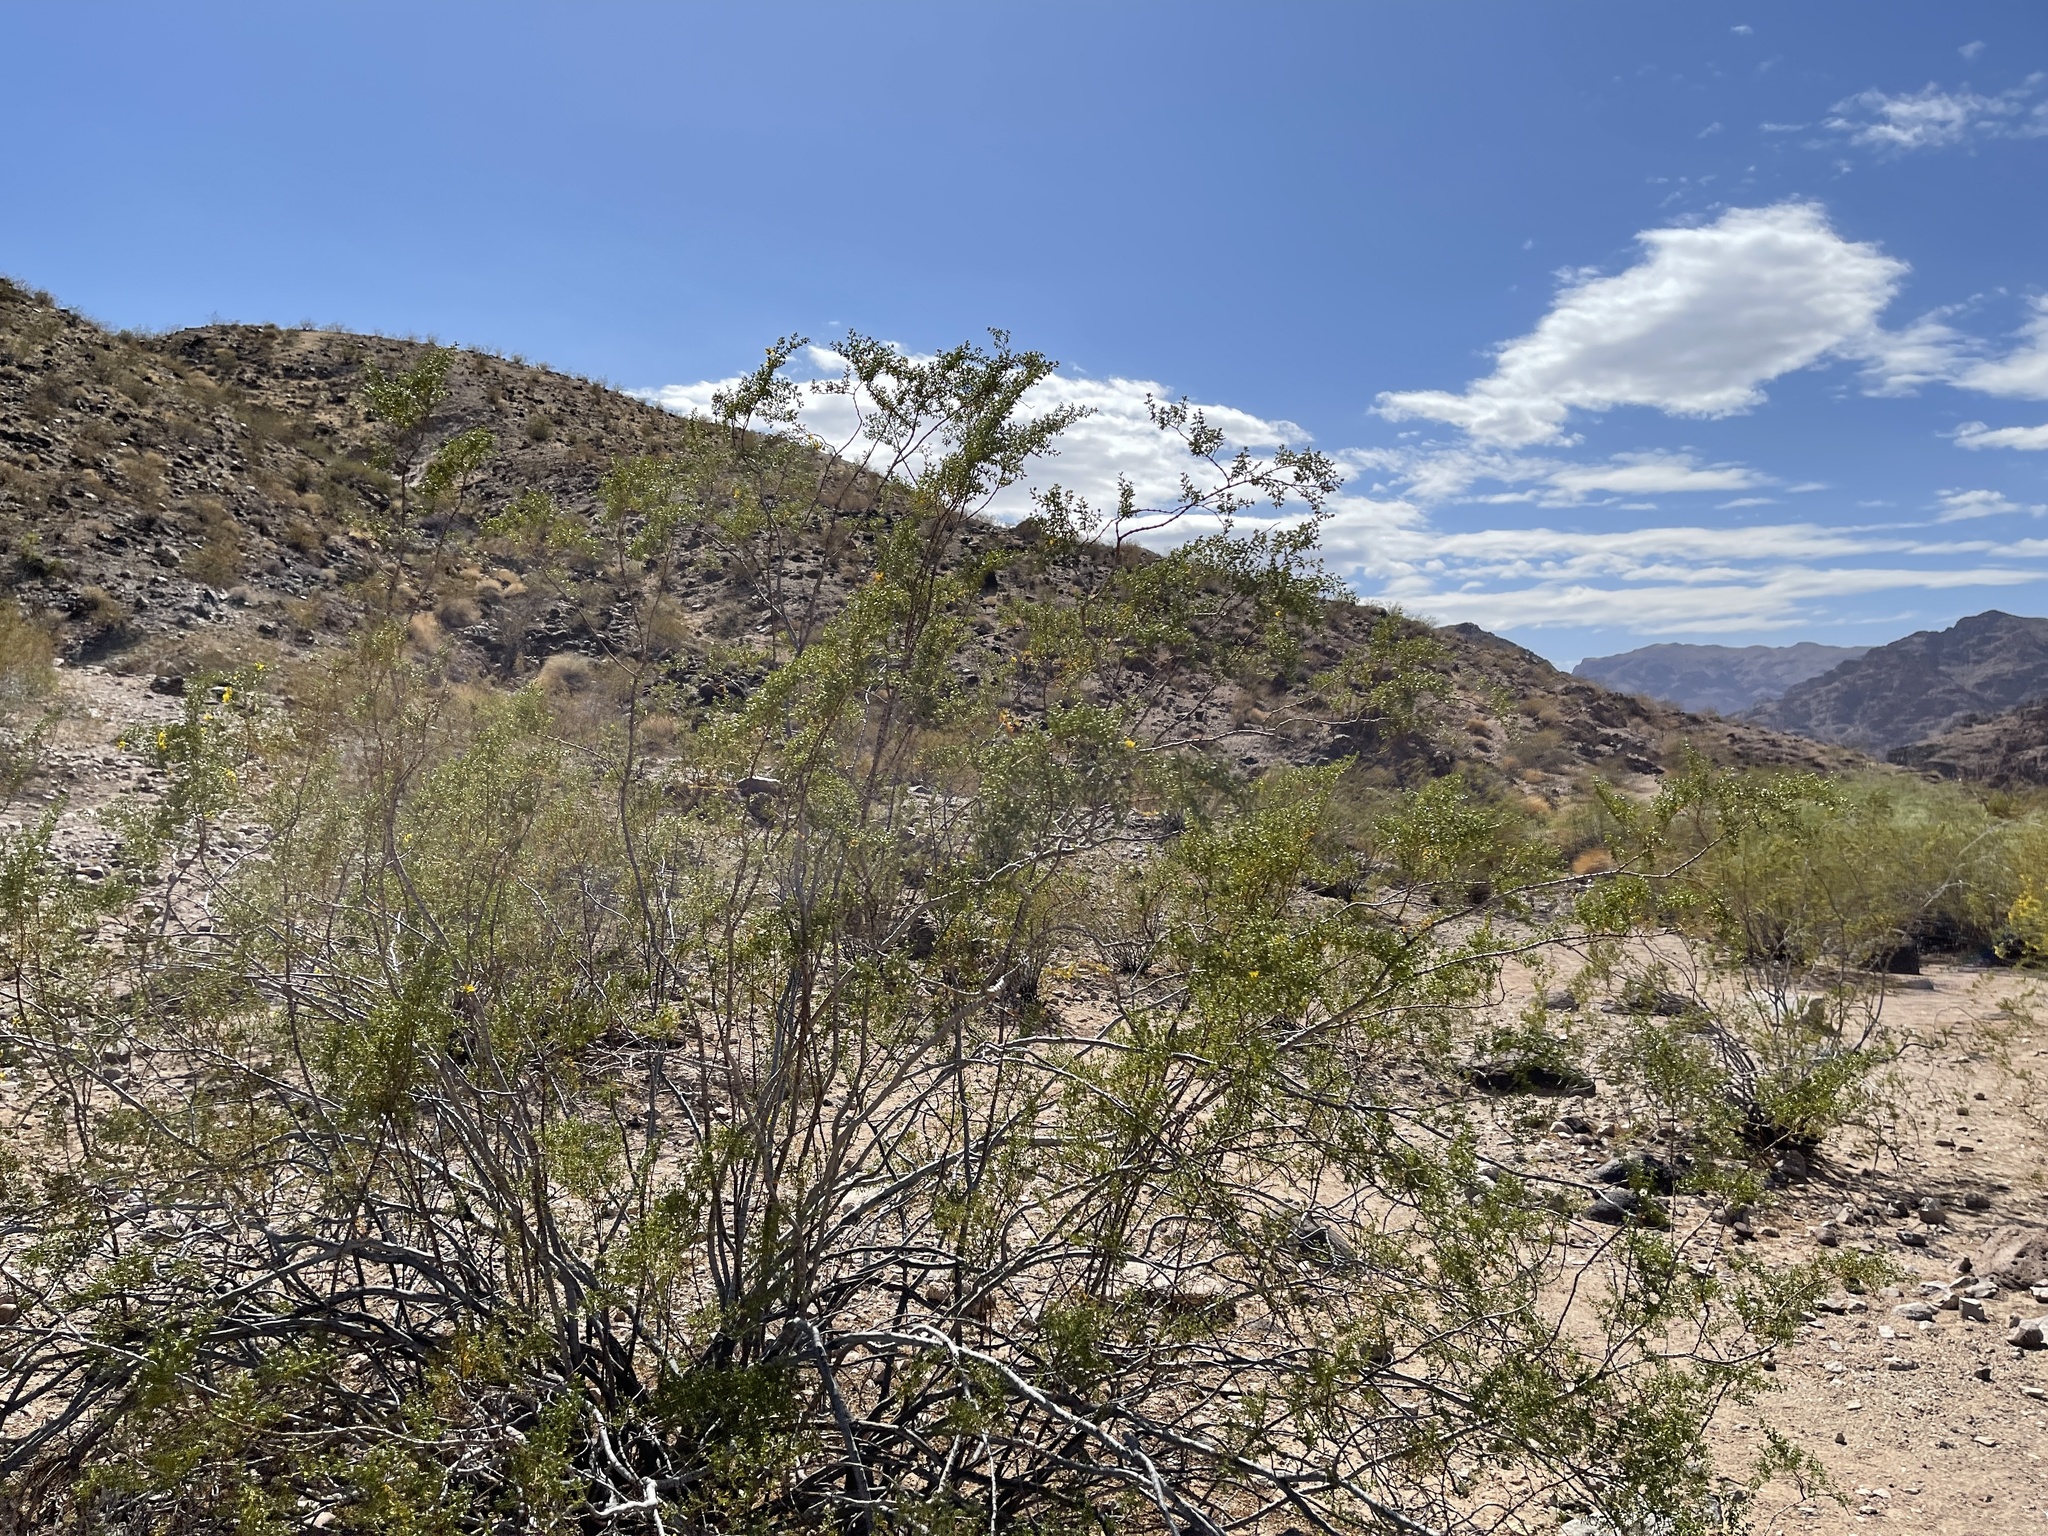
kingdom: Plantae
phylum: Tracheophyta
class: Magnoliopsida
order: Zygophyllales
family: Zygophyllaceae
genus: Larrea
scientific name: Larrea tridentata
